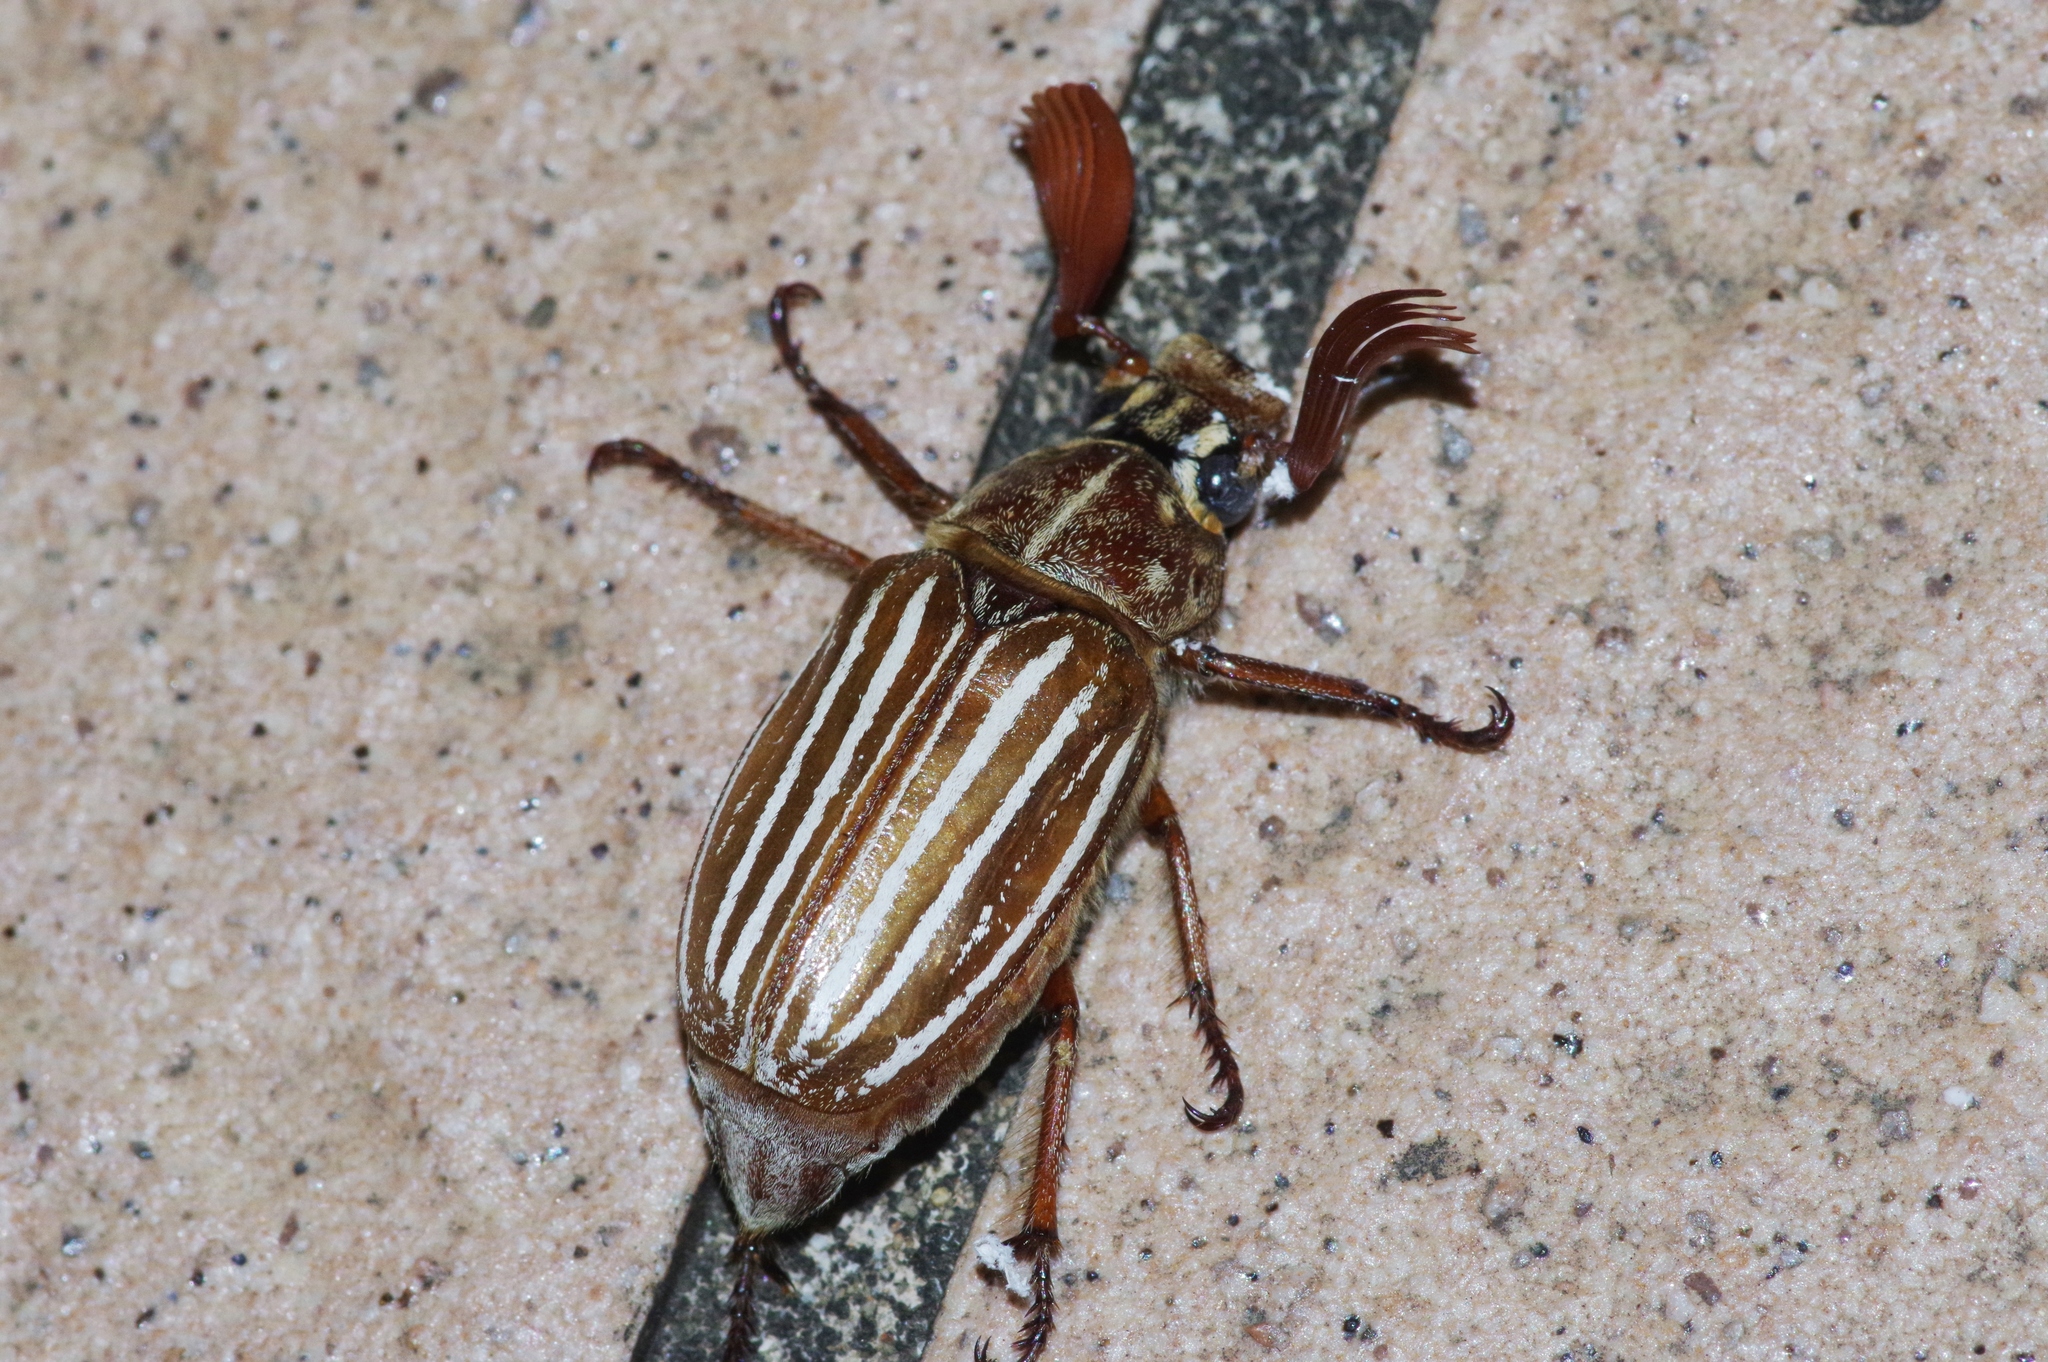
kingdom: Animalia
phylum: Arthropoda
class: Insecta
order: Coleoptera
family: Scarabaeidae
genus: Polyphylla
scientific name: Polyphylla schoenfeldti
